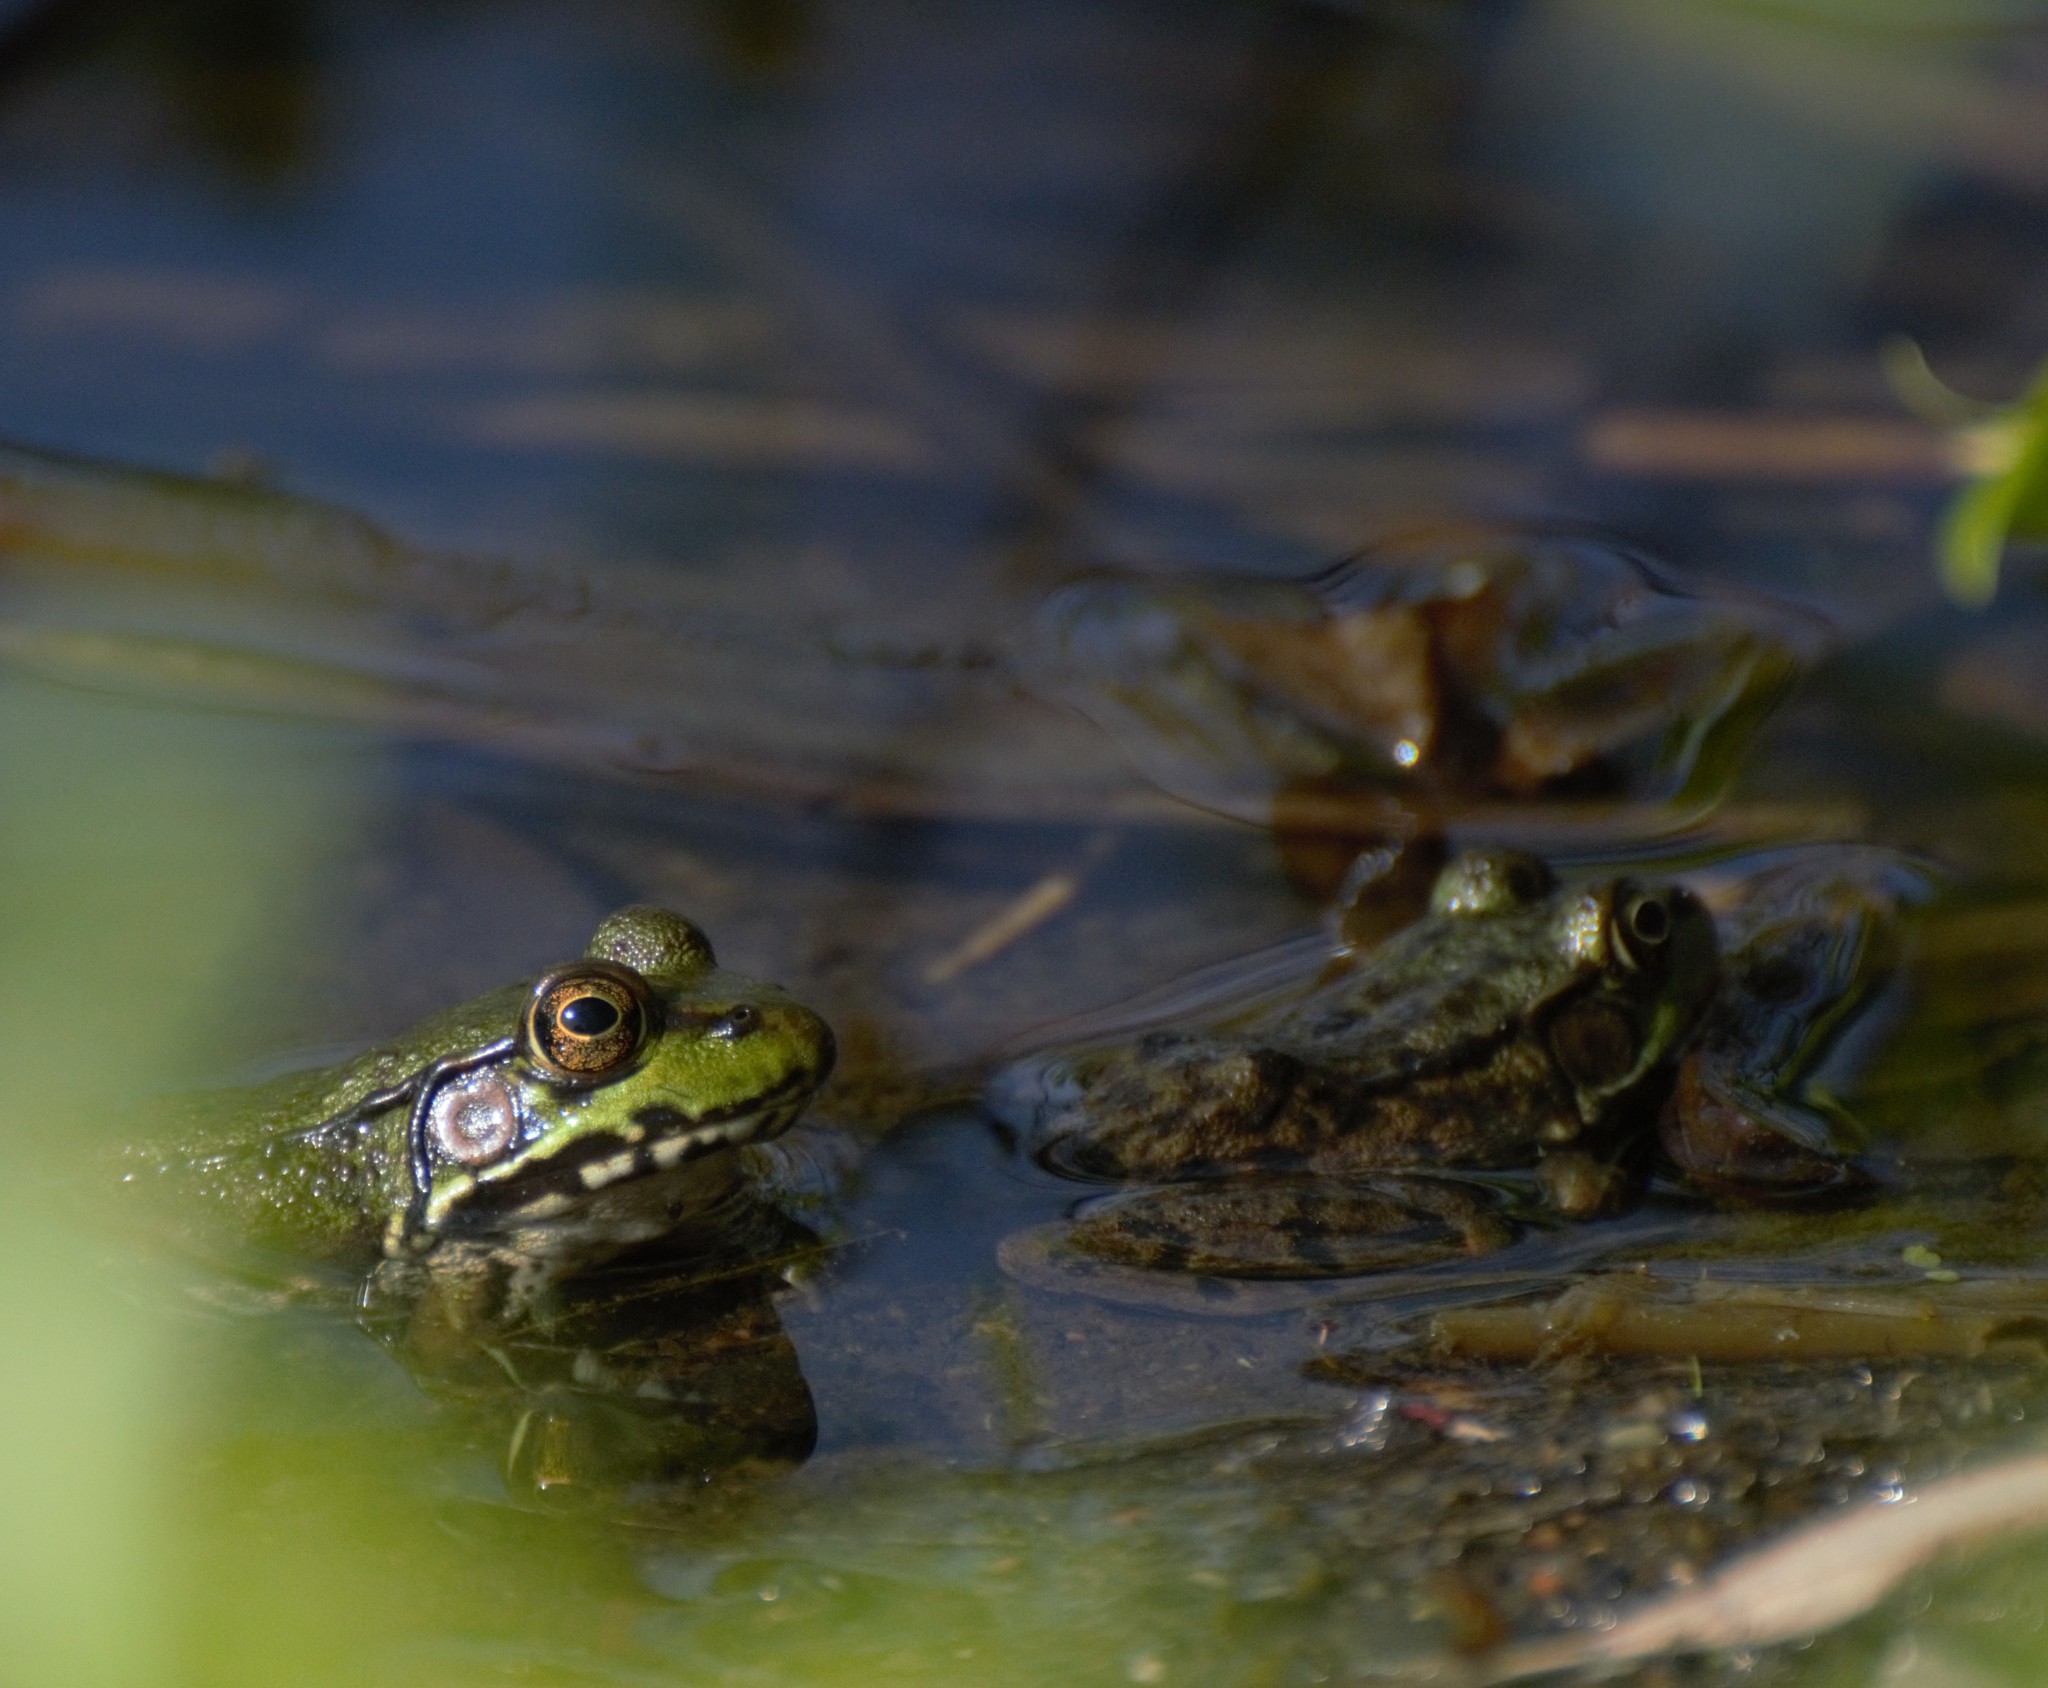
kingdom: Animalia
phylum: Chordata
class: Amphibia
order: Anura
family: Ranidae
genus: Lithobates
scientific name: Lithobates clamitans
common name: Green frog
